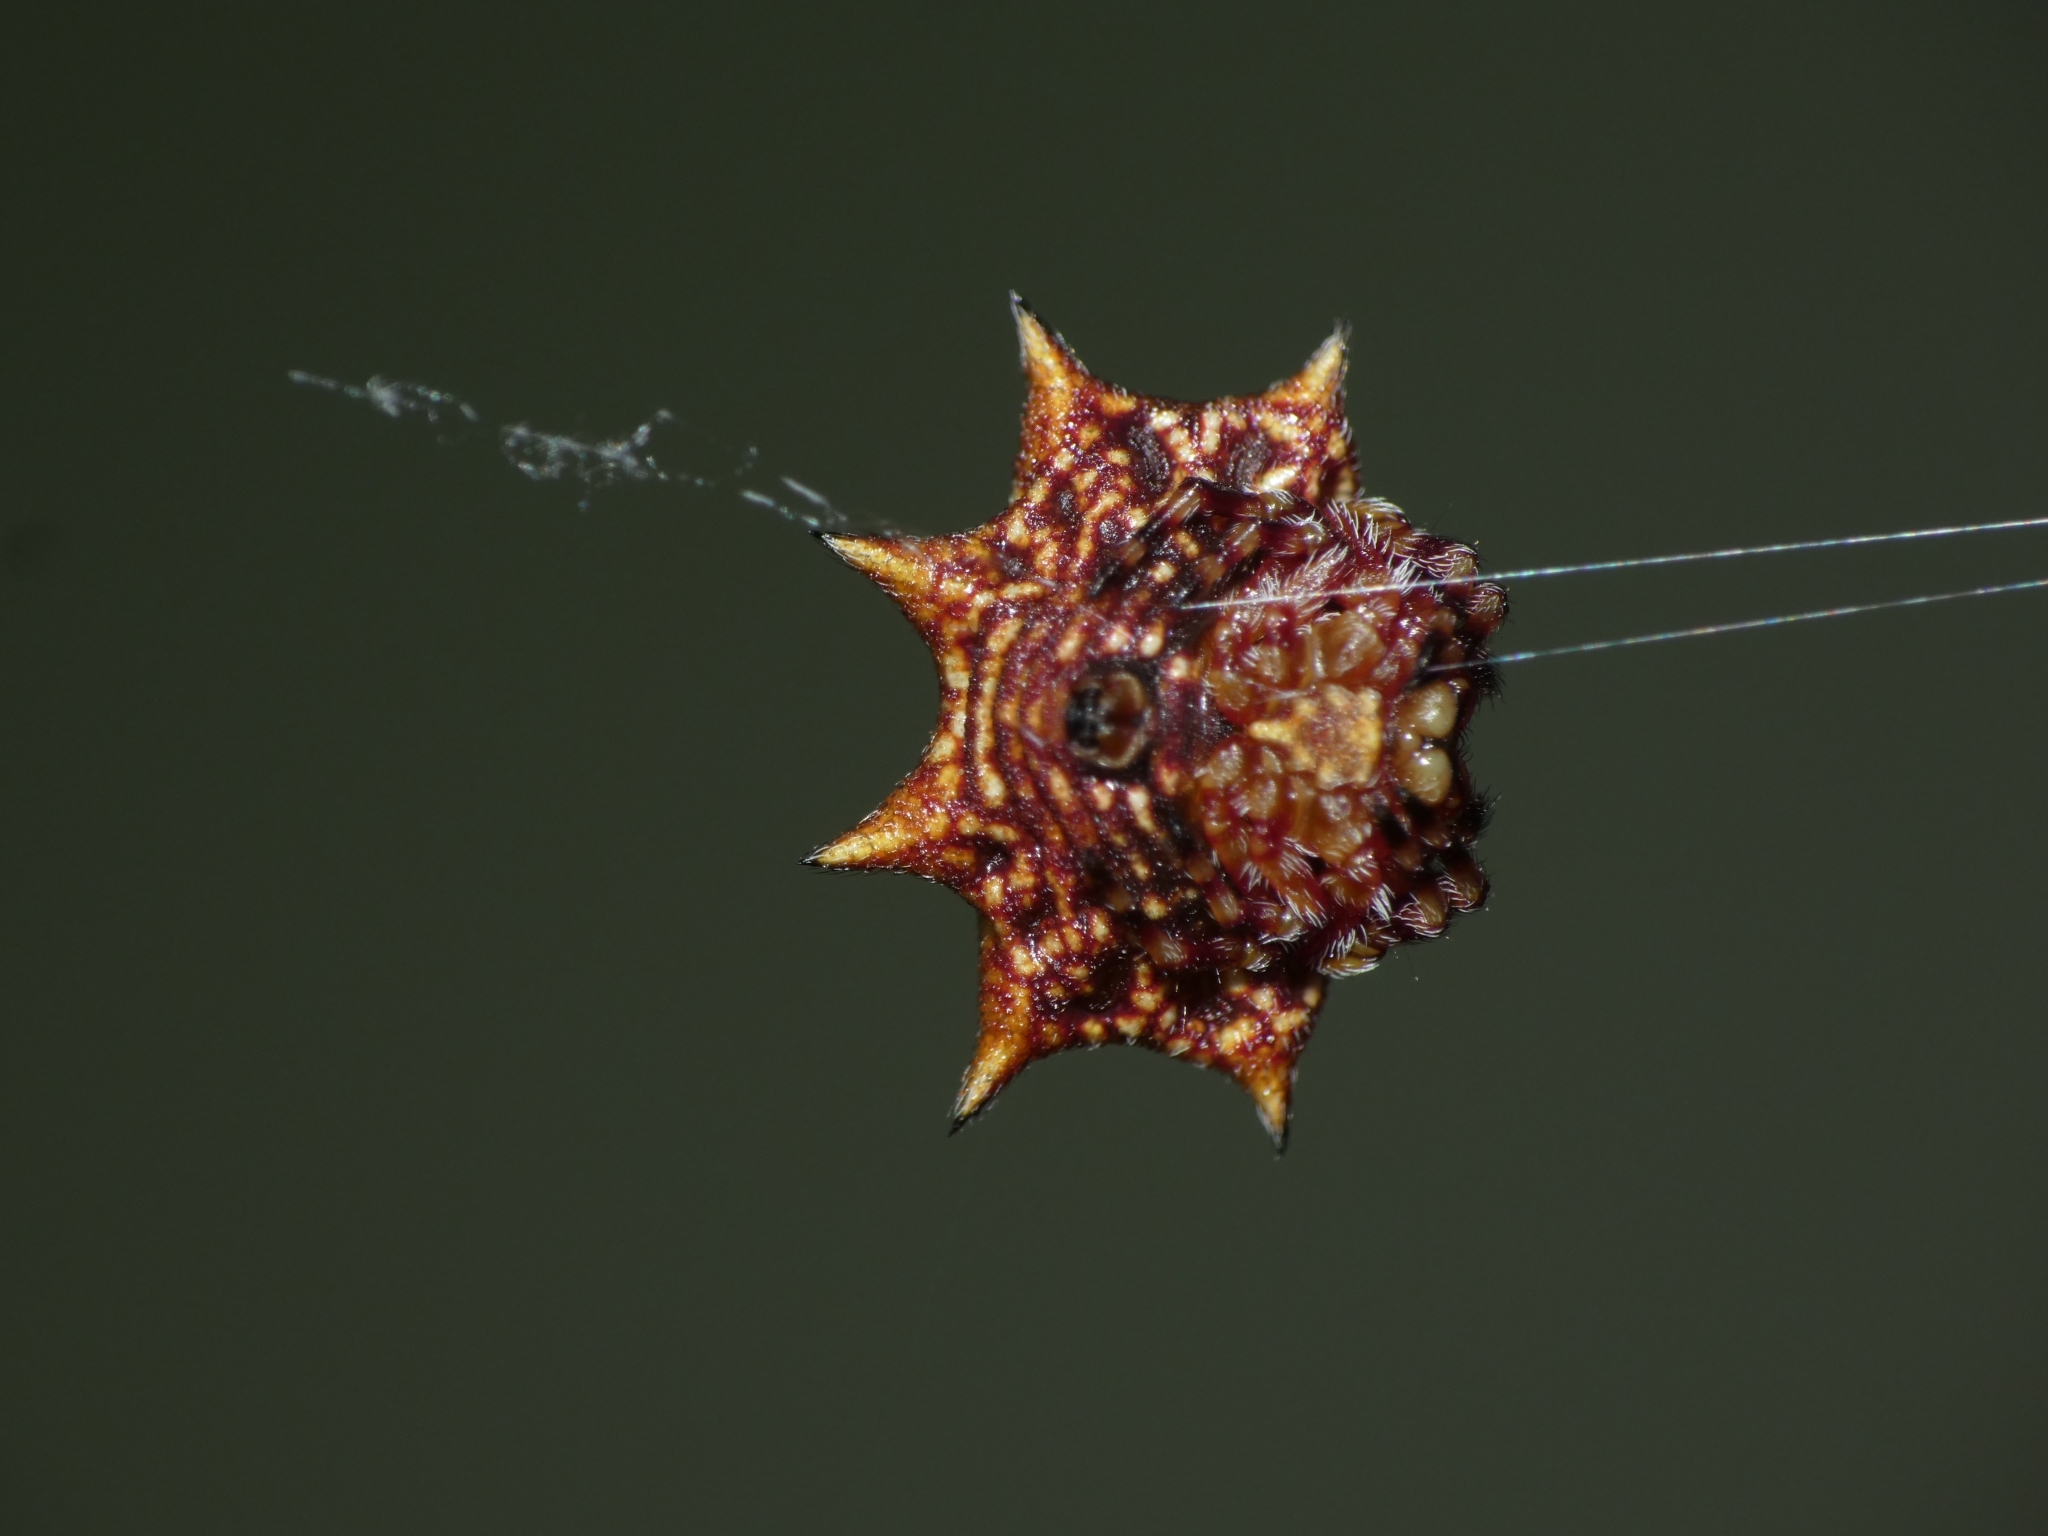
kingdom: Animalia
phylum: Arthropoda
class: Arachnida
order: Araneae
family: Araneidae
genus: Isoxya
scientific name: Isoxya stuhlmanni
